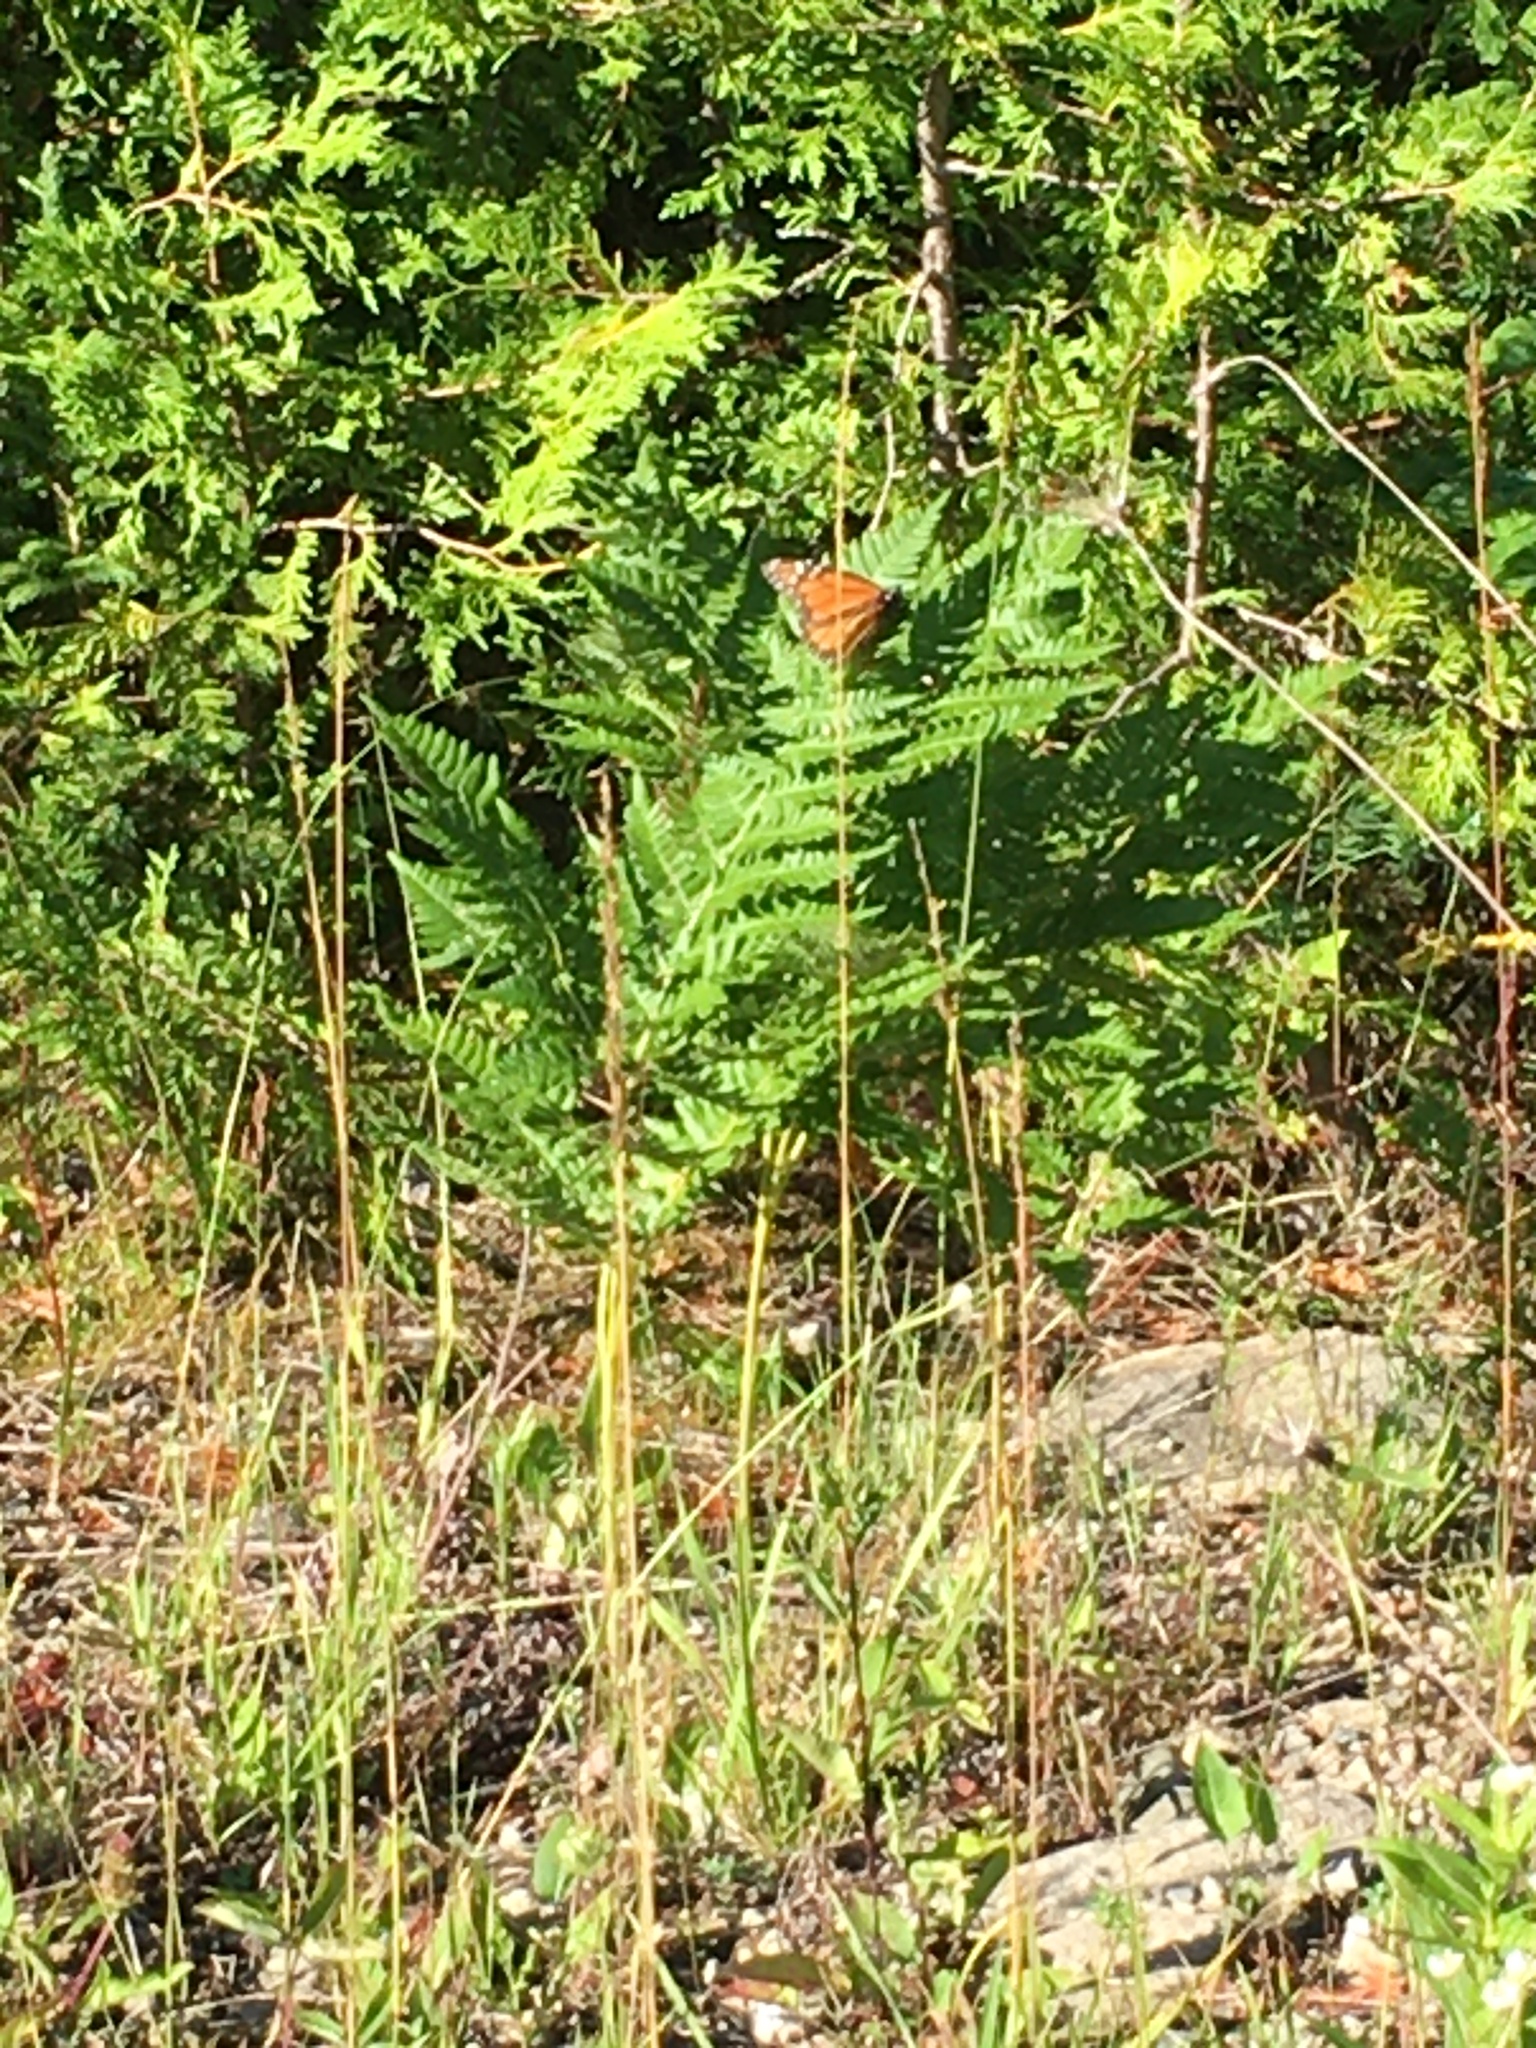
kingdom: Animalia
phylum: Arthropoda
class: Insecta
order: Lepidoptera
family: Nymphalidae
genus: Danaus
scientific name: Danaus plexippus
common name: Monarch
